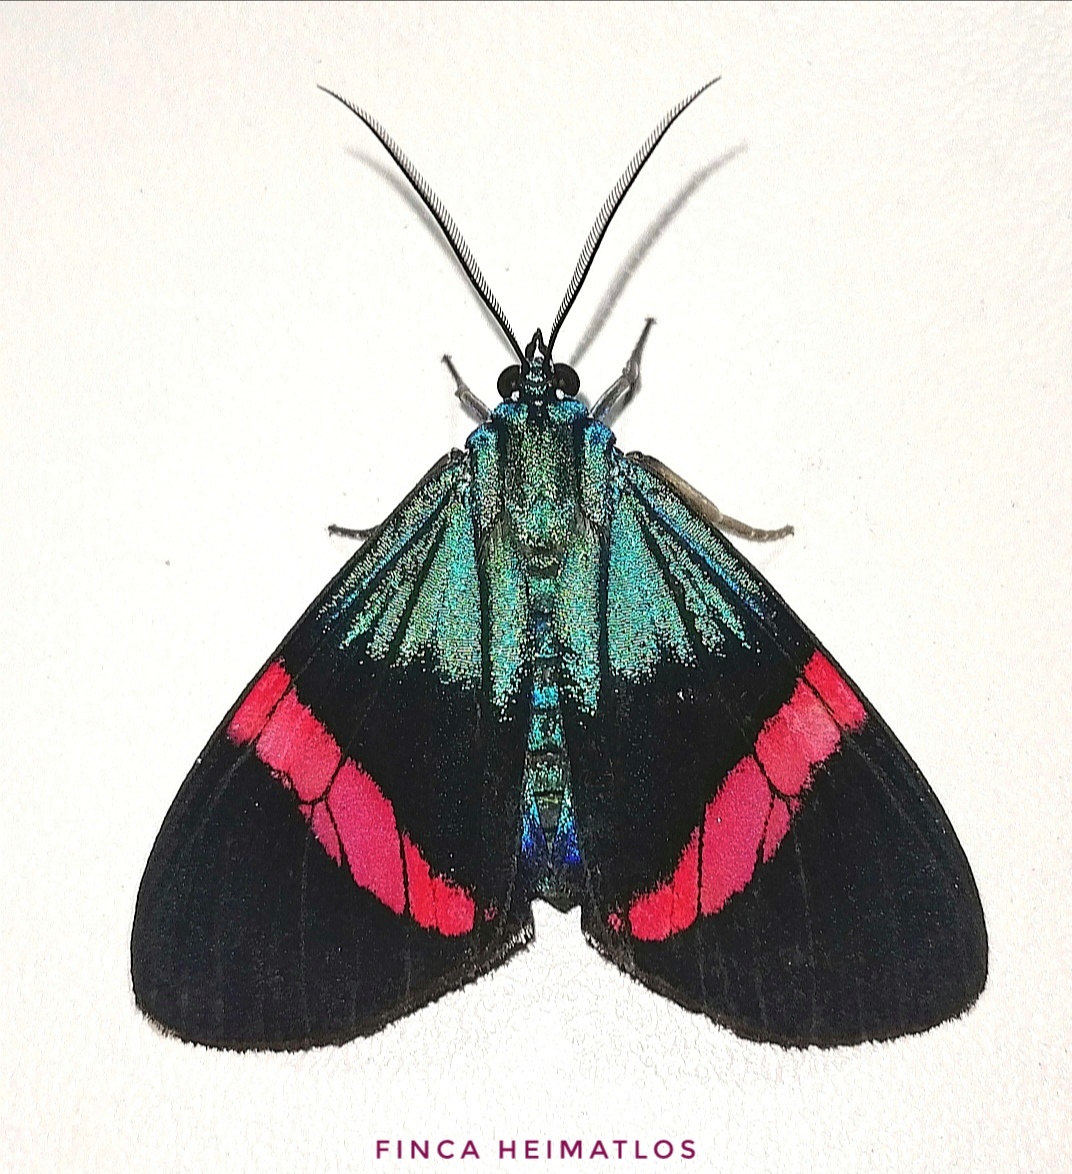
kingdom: Animalia
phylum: Arthropoda
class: Insecta
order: Lepidoptera
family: Erebidae
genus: Hypocrita
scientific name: Hypocrita temperata
